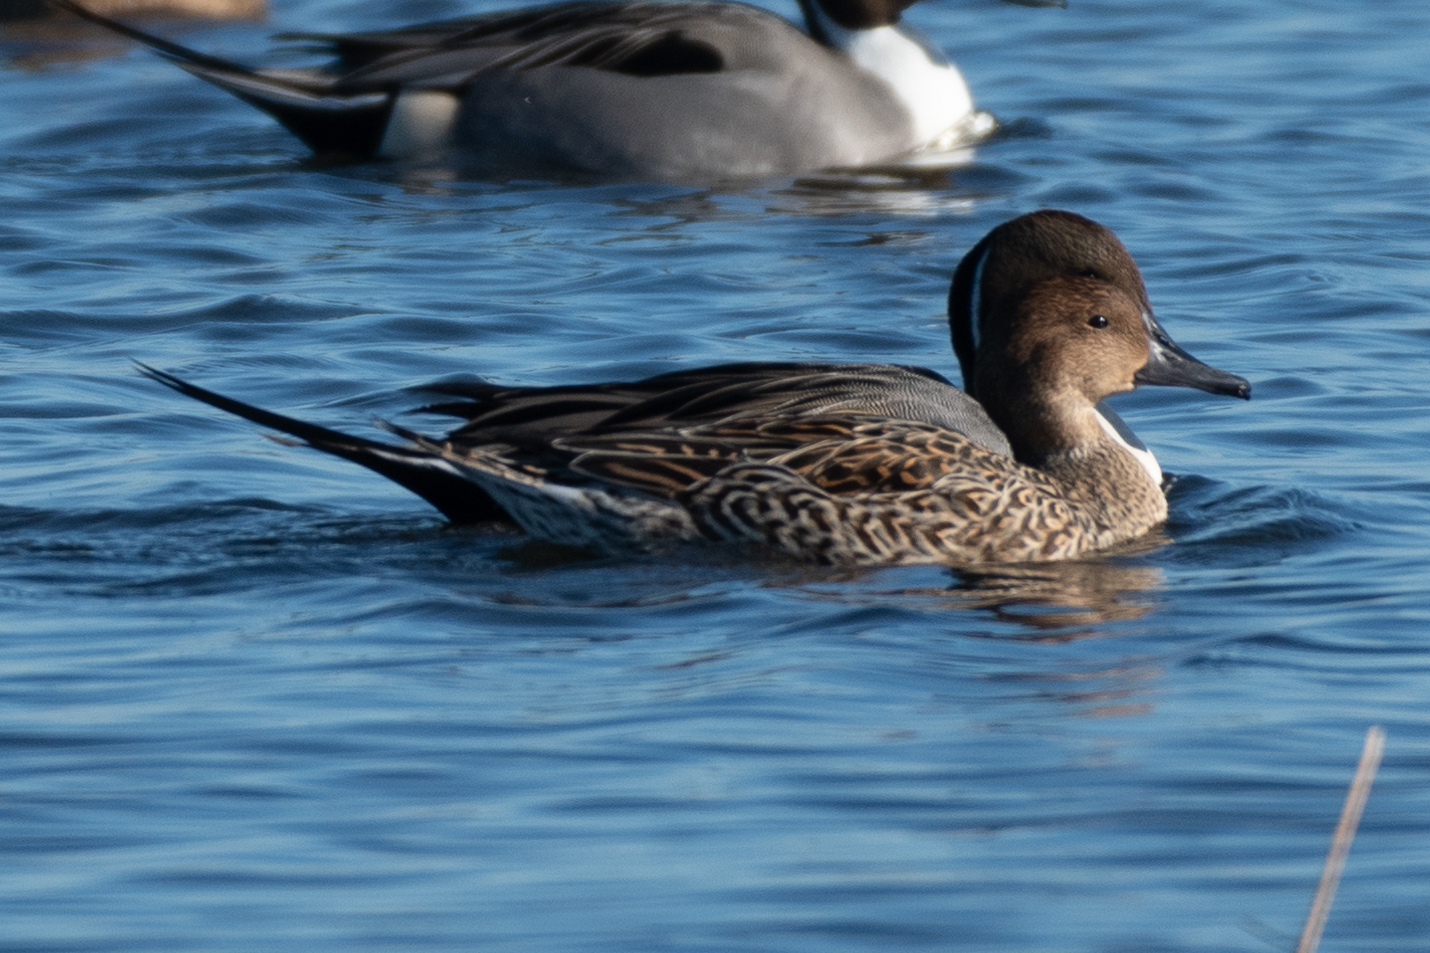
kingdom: Animalia
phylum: Chordata
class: Aves
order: Anseriformes
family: Anatidae
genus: Anas
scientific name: Anas acuta
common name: Northern pintail
